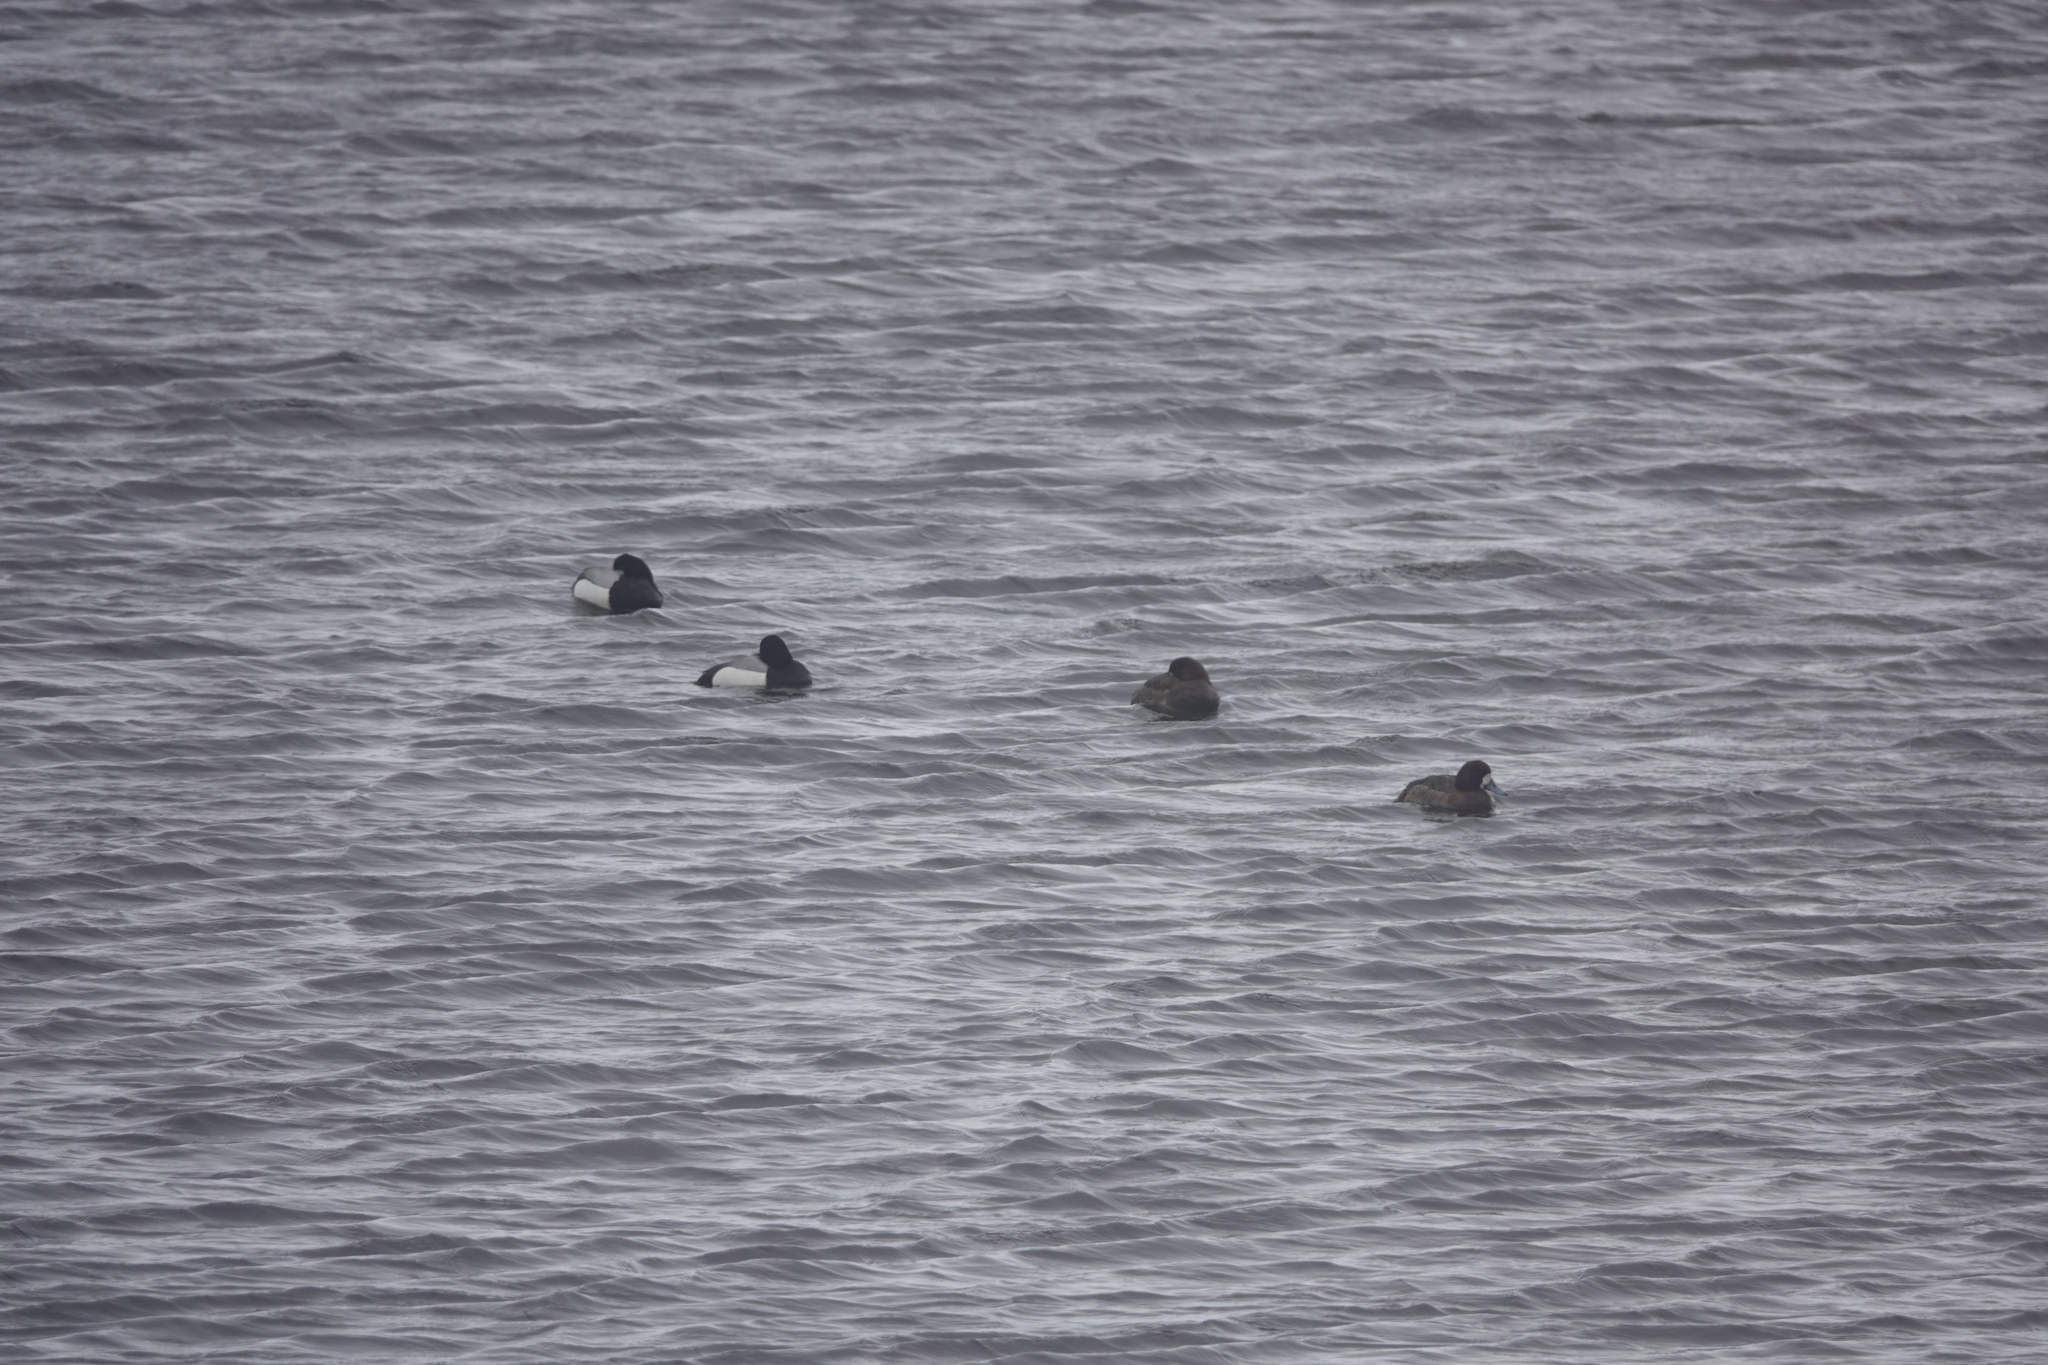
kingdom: Animalia
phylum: Chordata
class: Aves
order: Anseriformes
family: Anatidae
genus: Aythya
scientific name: Aythya marila
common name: Greater scaup
